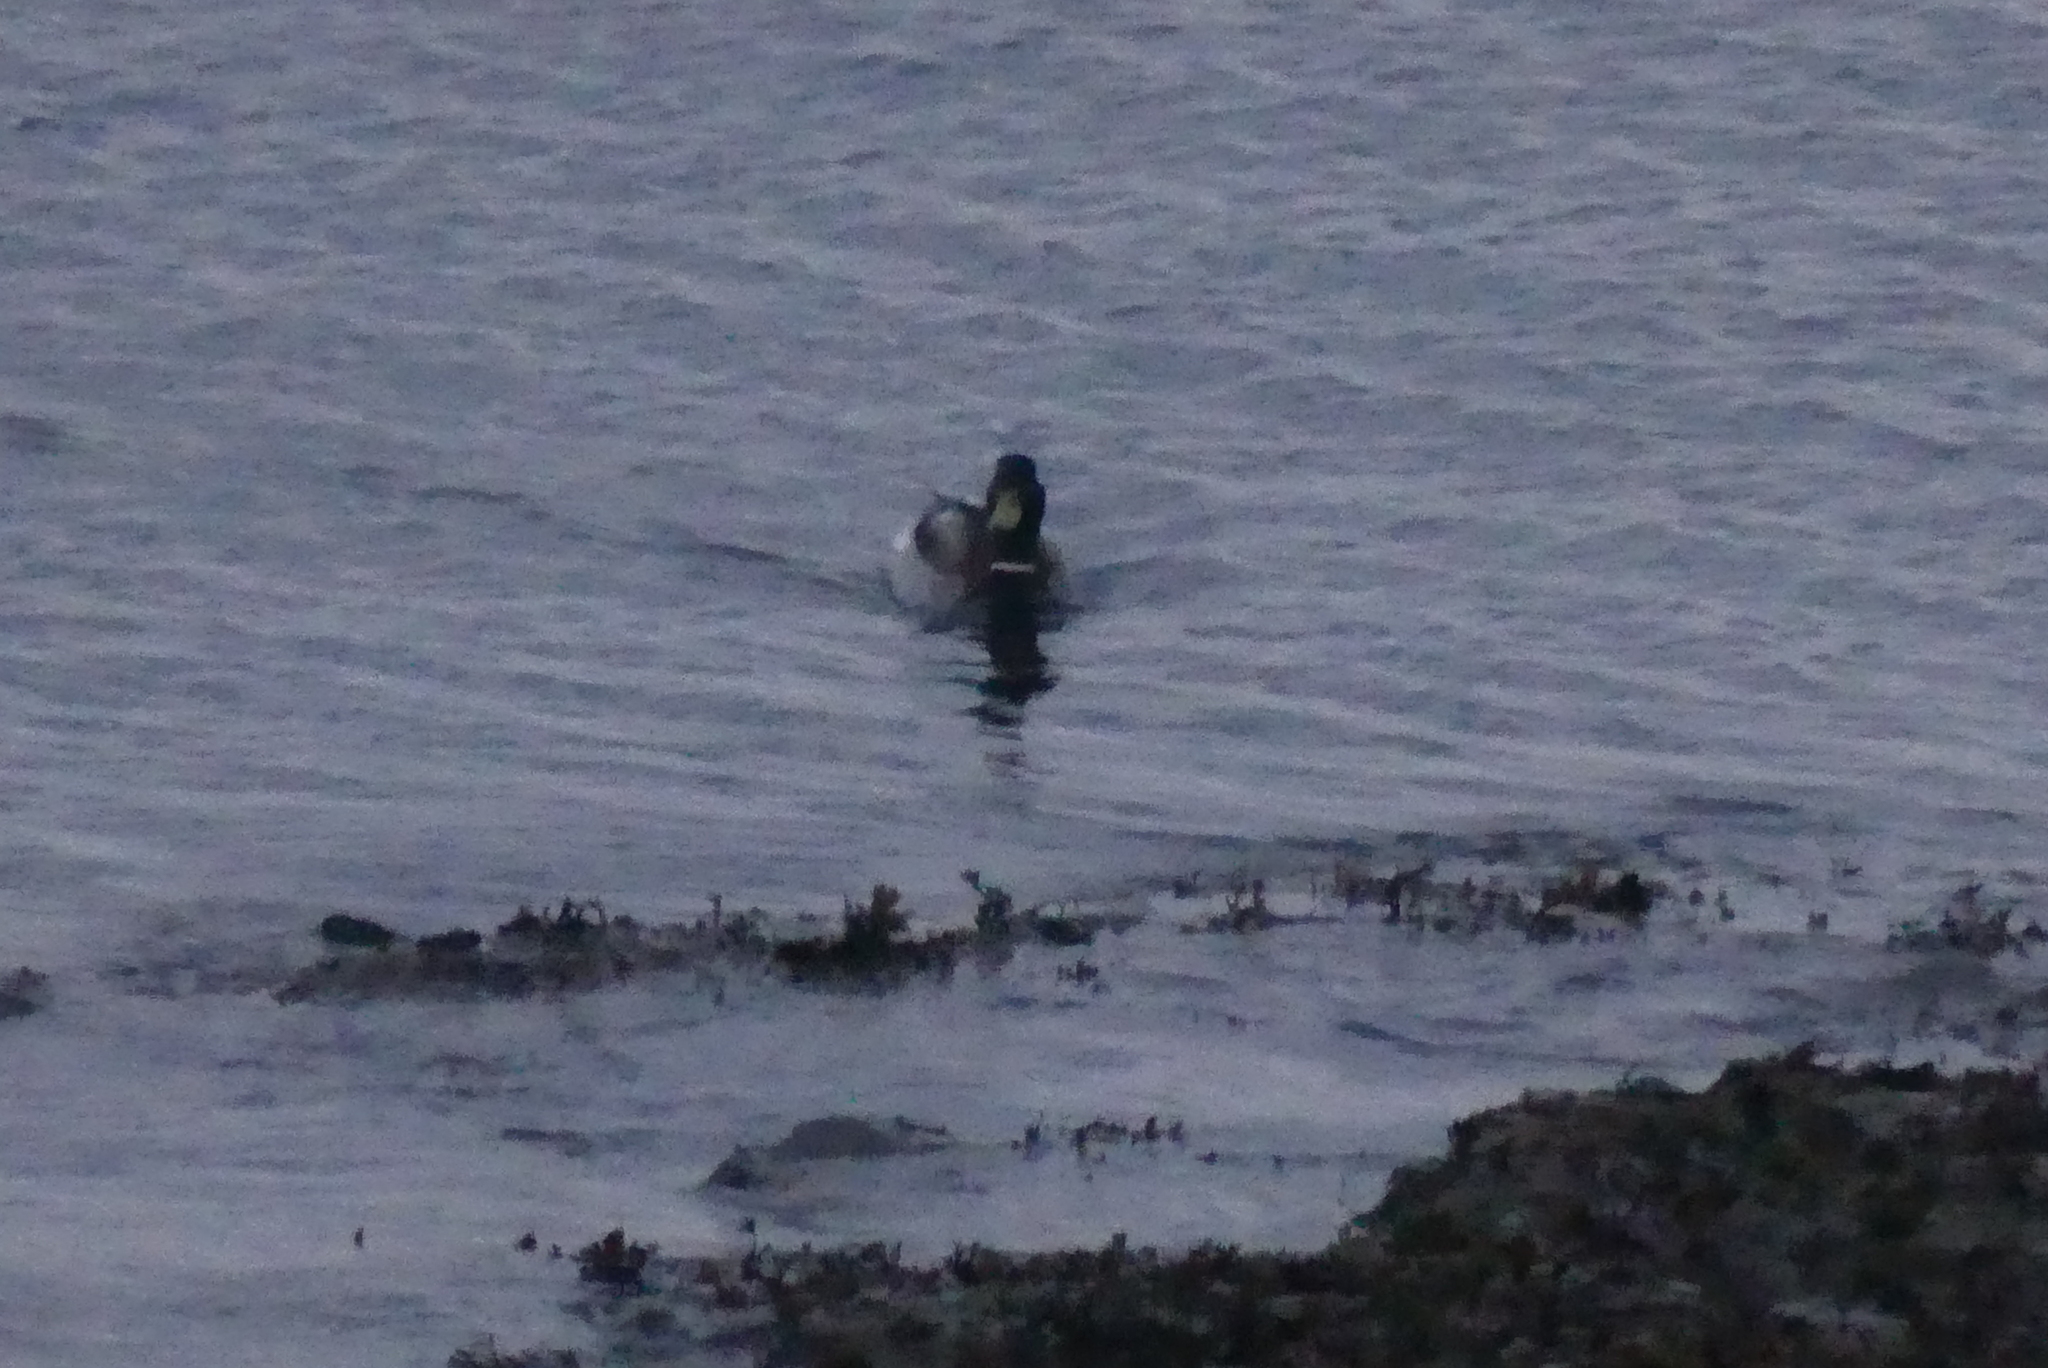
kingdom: Animalia
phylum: Chordata
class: Aves
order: Anseriformes
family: Anatidae
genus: Anas
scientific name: Anas platyrhynchos
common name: Mallard
